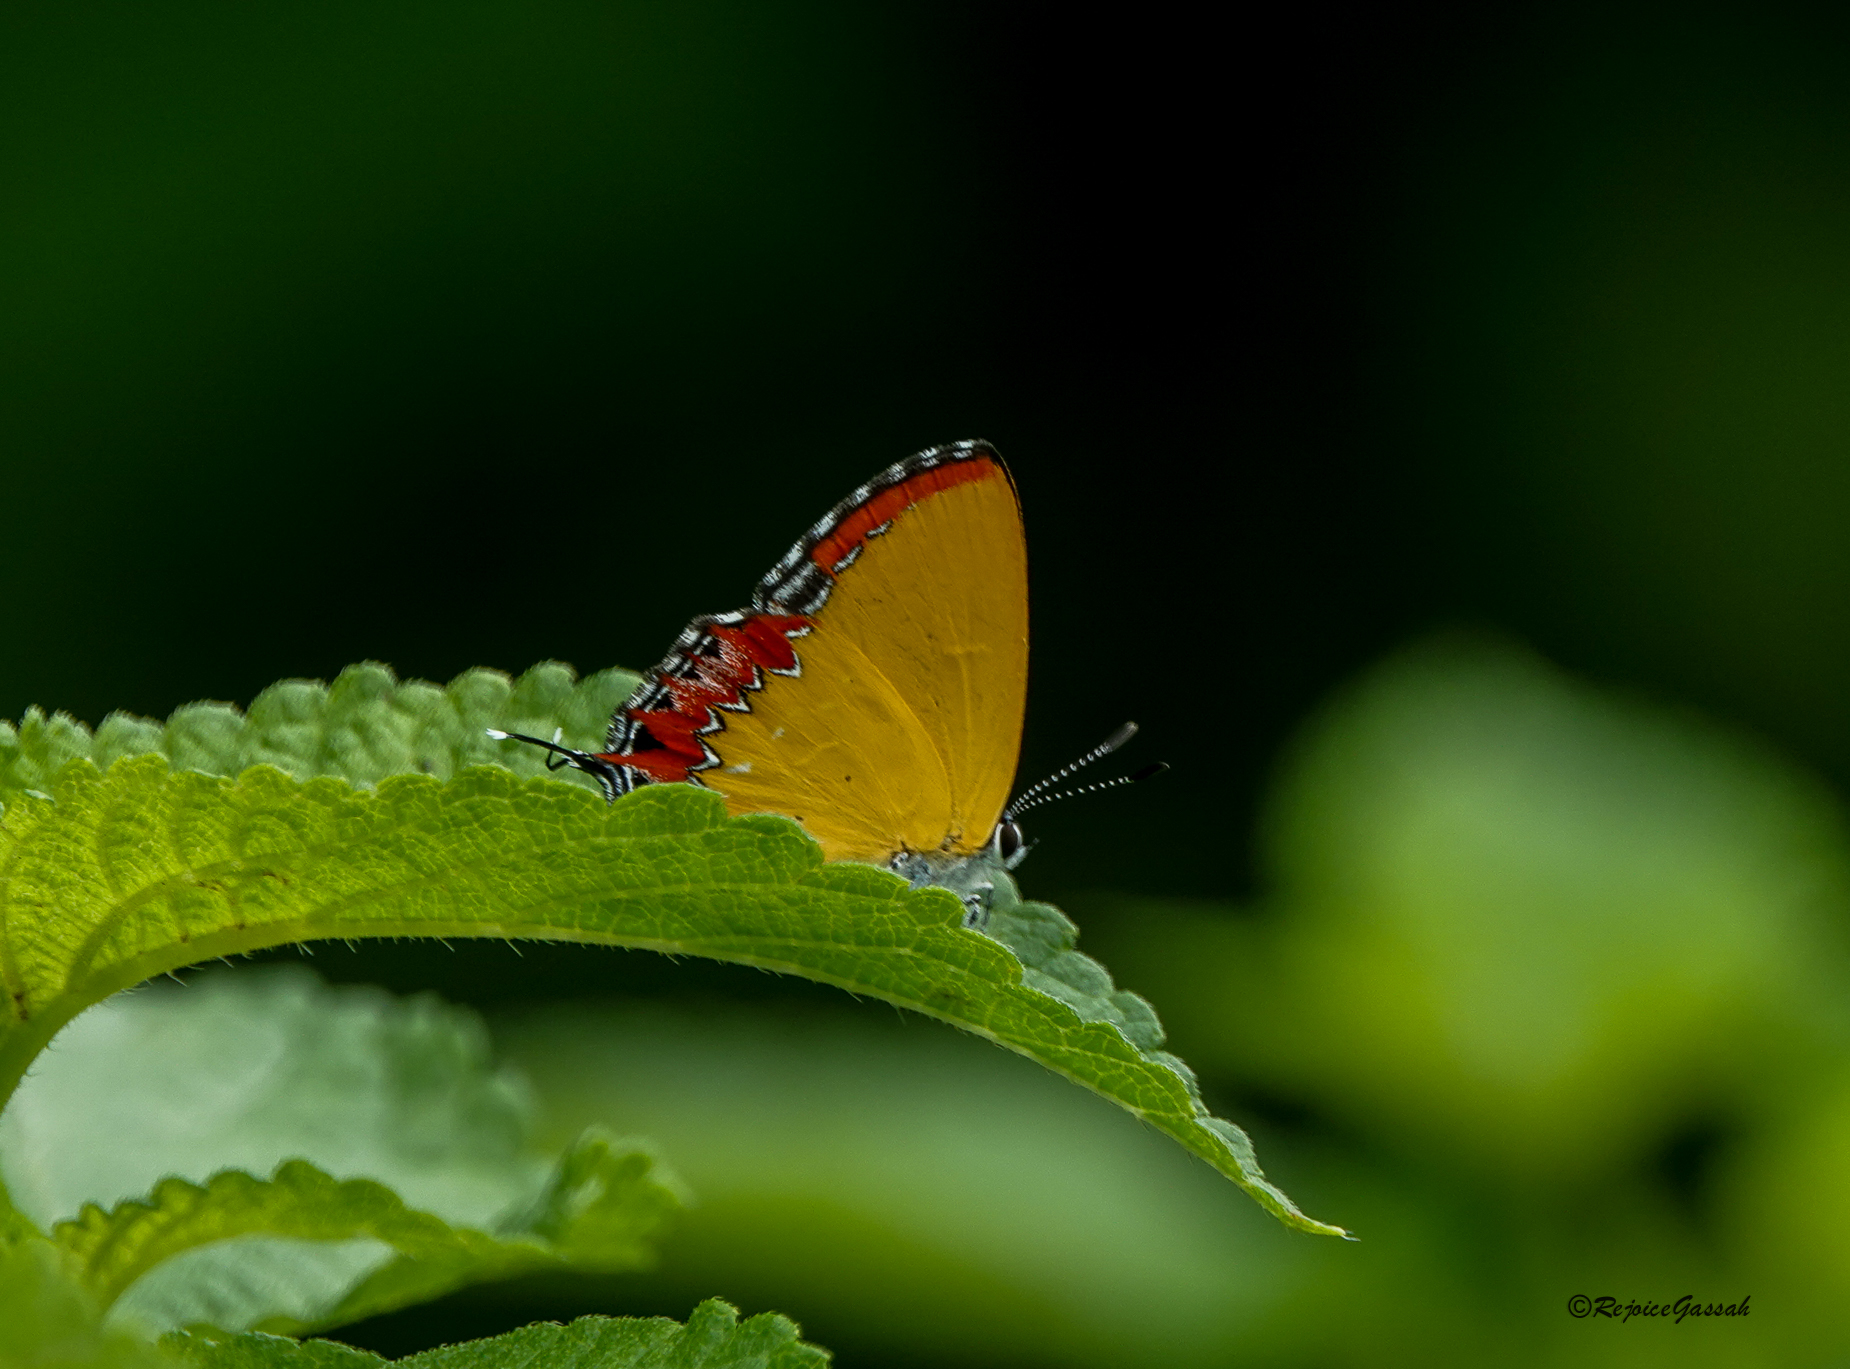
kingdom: Animalia
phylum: Arthropoda
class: Insecta
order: Lepidoptera
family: Lycaenidae
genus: Heliophorus
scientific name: Heliophorus epicles
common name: Purple sapphire
